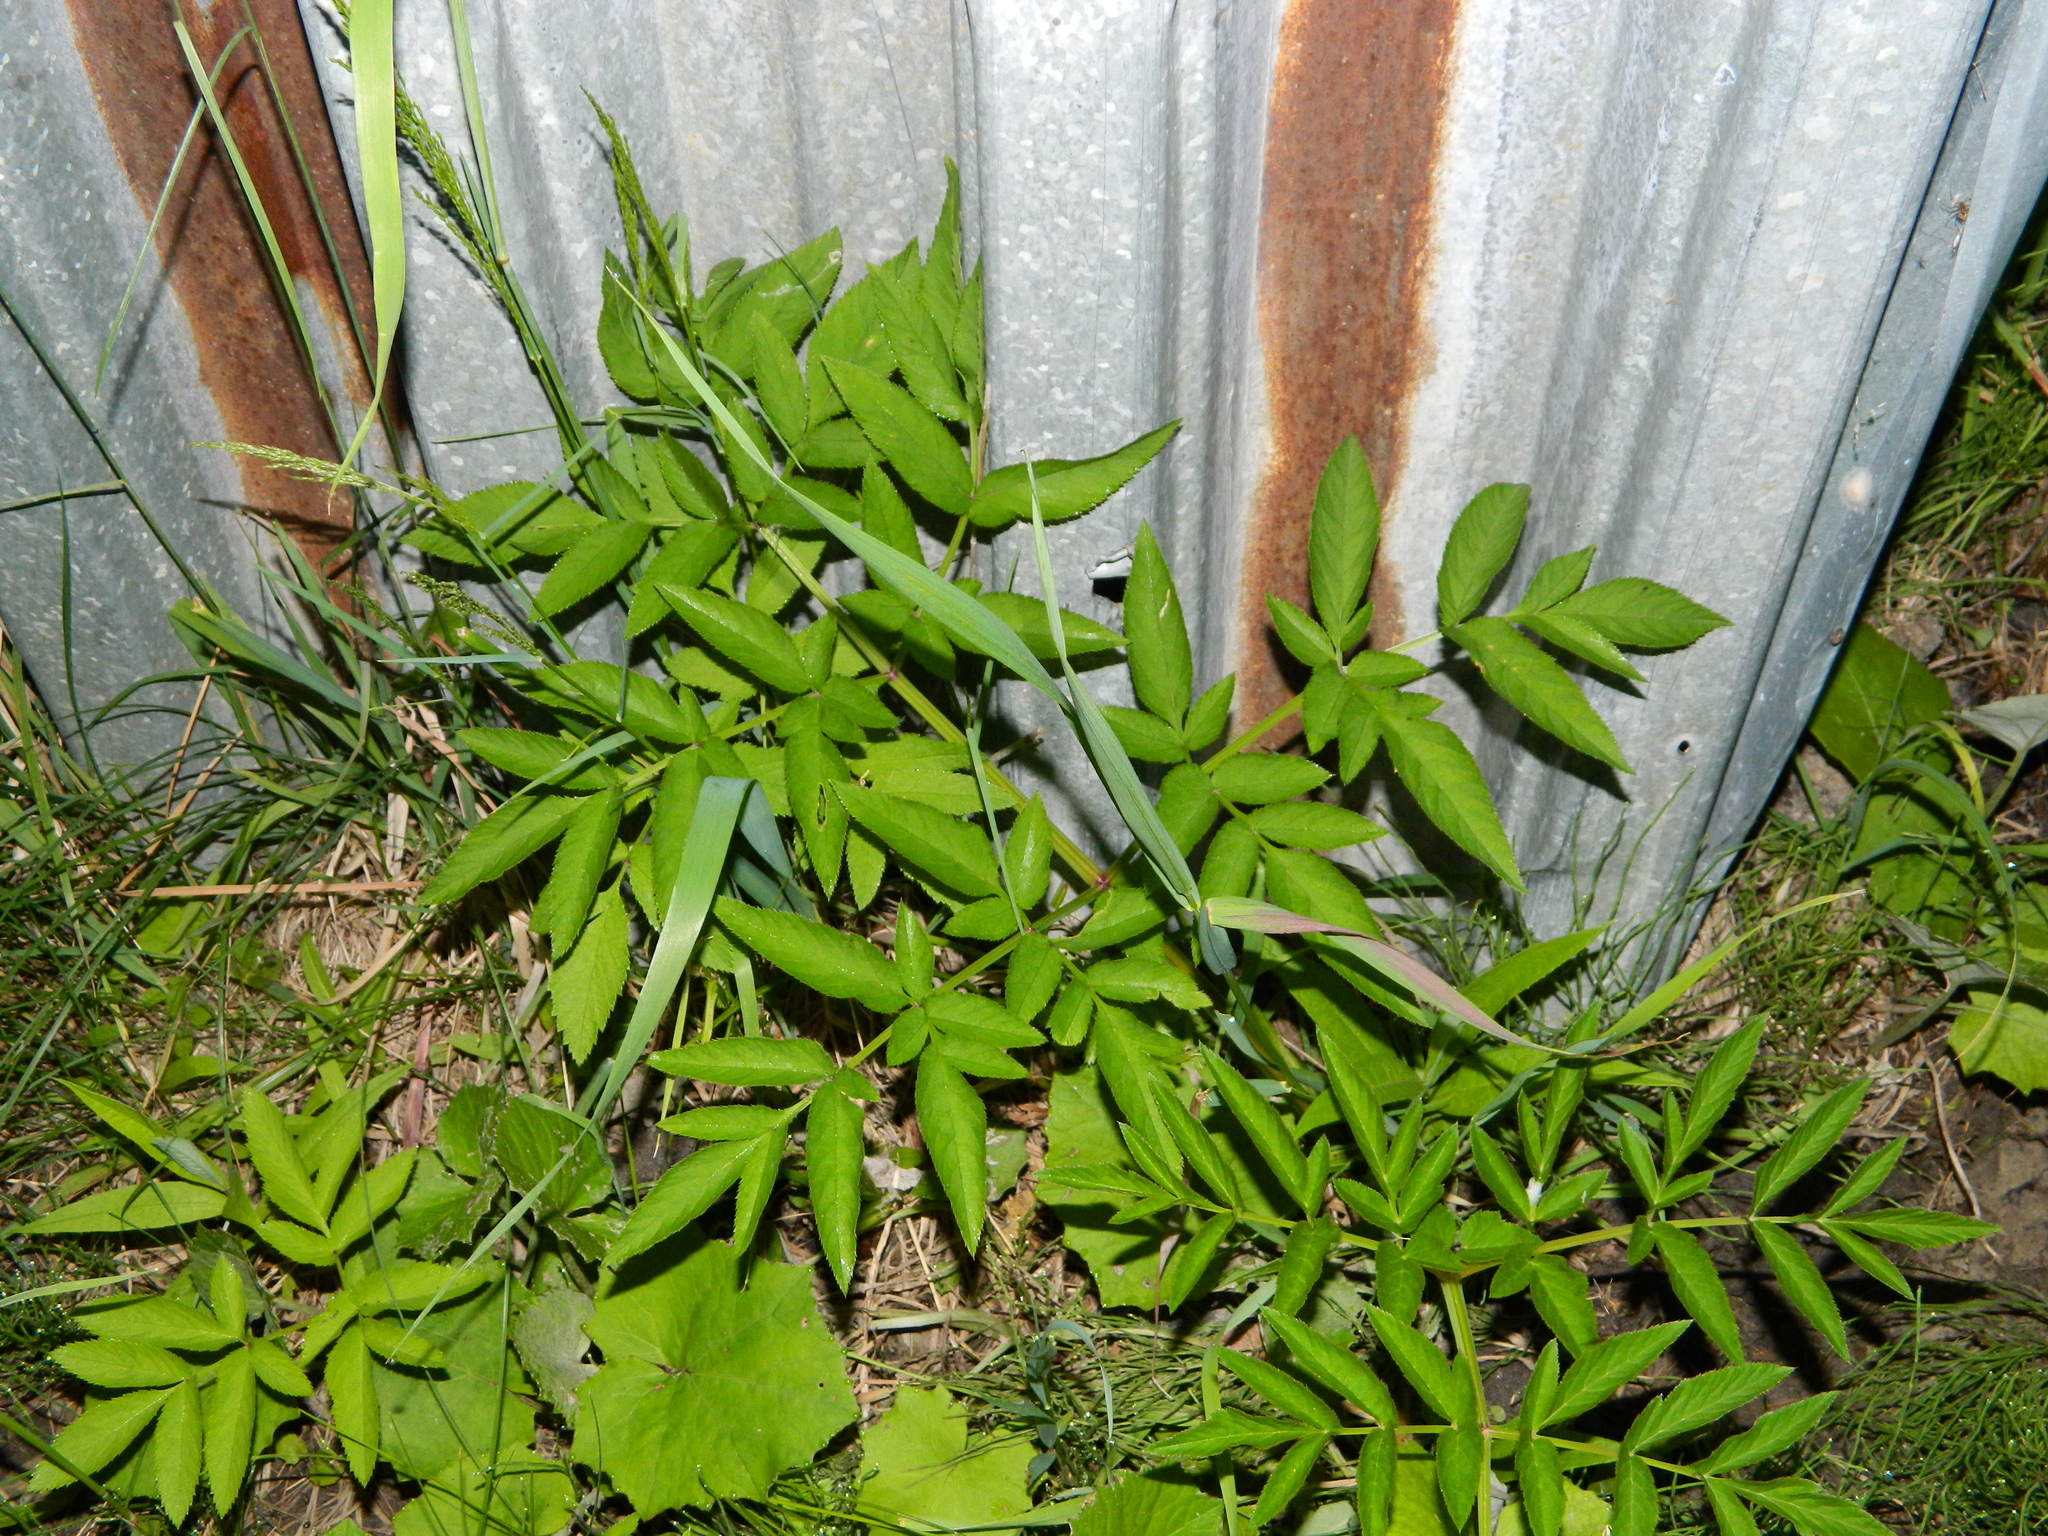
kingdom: Plantae
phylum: Tracheophyta
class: Magnoliopsida
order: Apiales
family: Apiaceae
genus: Angelica
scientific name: Angelica sylvestris
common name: Wild angelica
